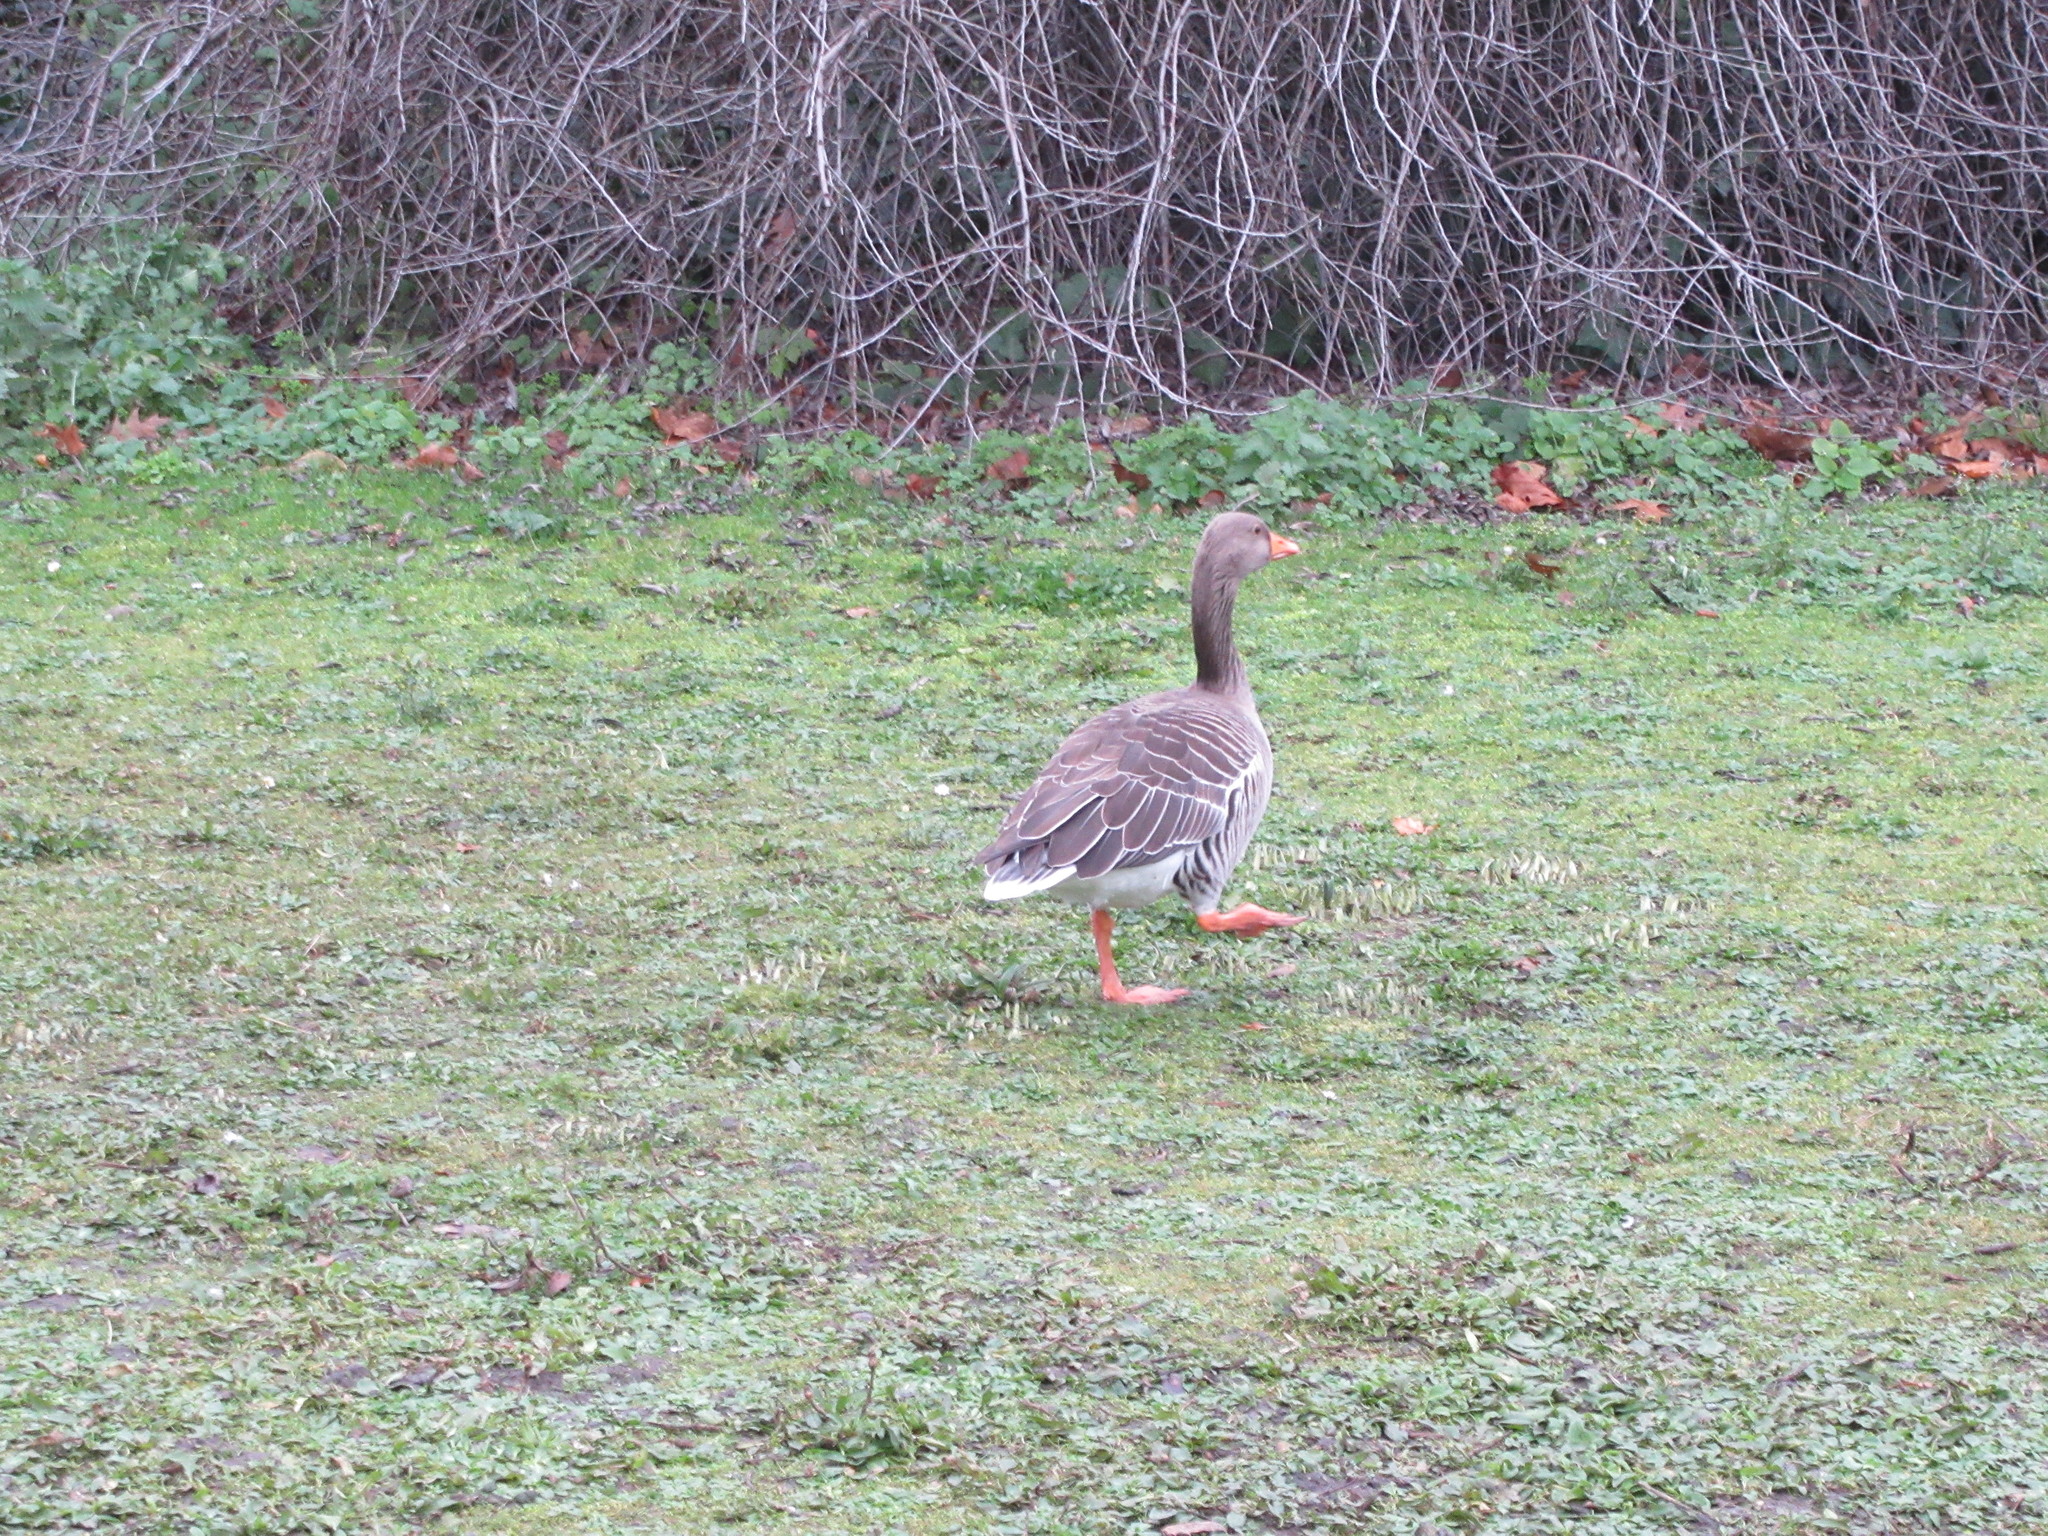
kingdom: Animalia
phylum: Chordata
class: Aves
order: Anseriformes
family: Anatidae
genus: Anser
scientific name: Anser anser
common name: Greylag goose
